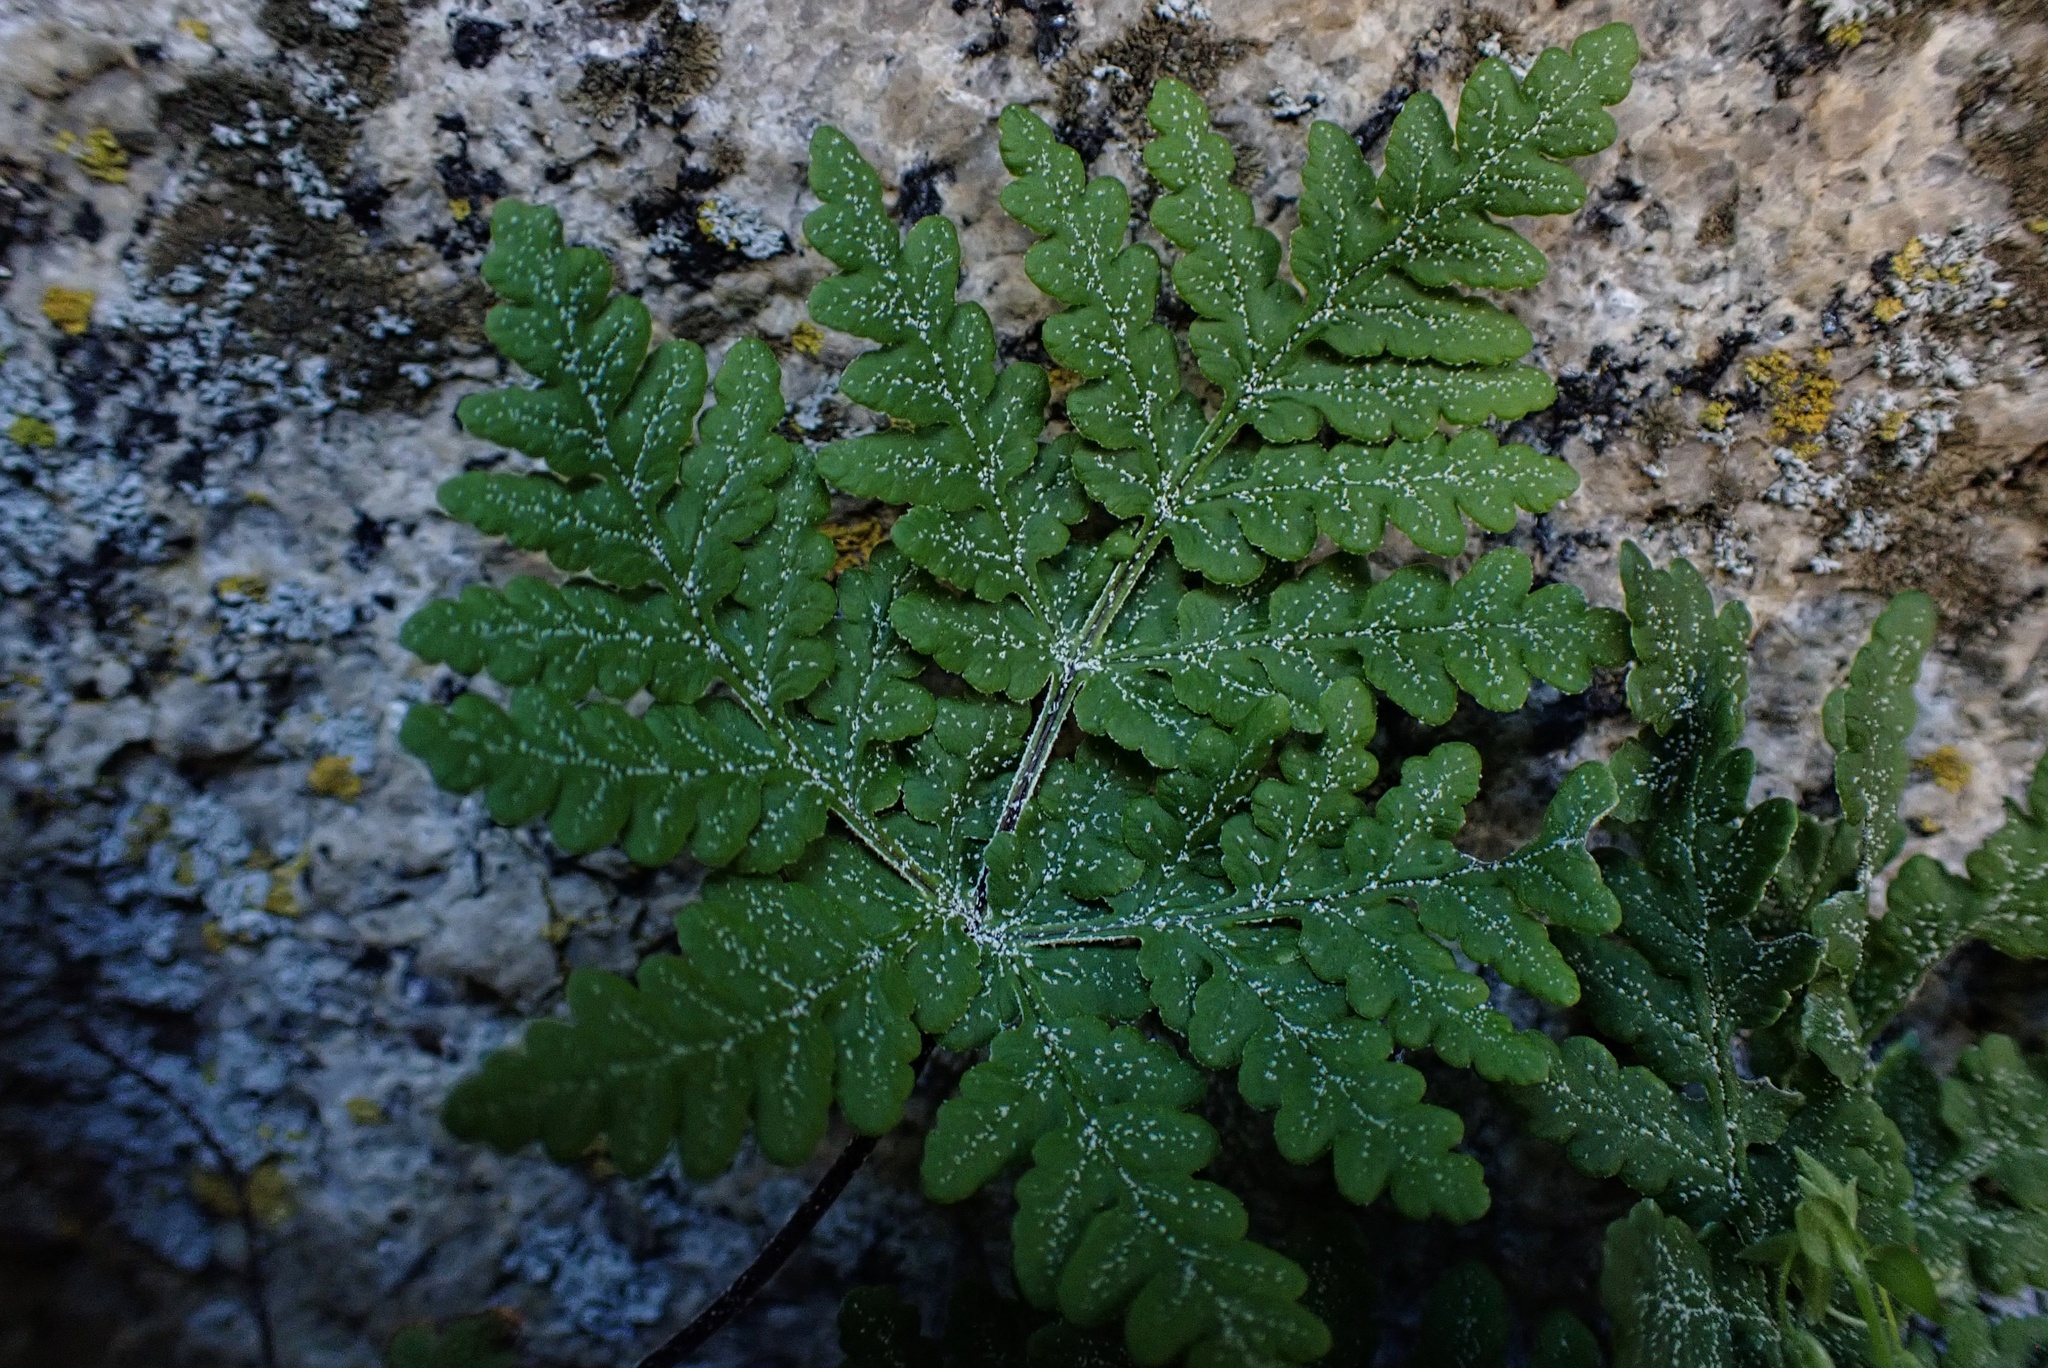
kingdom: Plantae
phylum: Tracheophyta
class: Polypodiopsida
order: Polypodiales
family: Pteridaceae
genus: Pentagramma
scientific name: Pentagramma rebmanii
